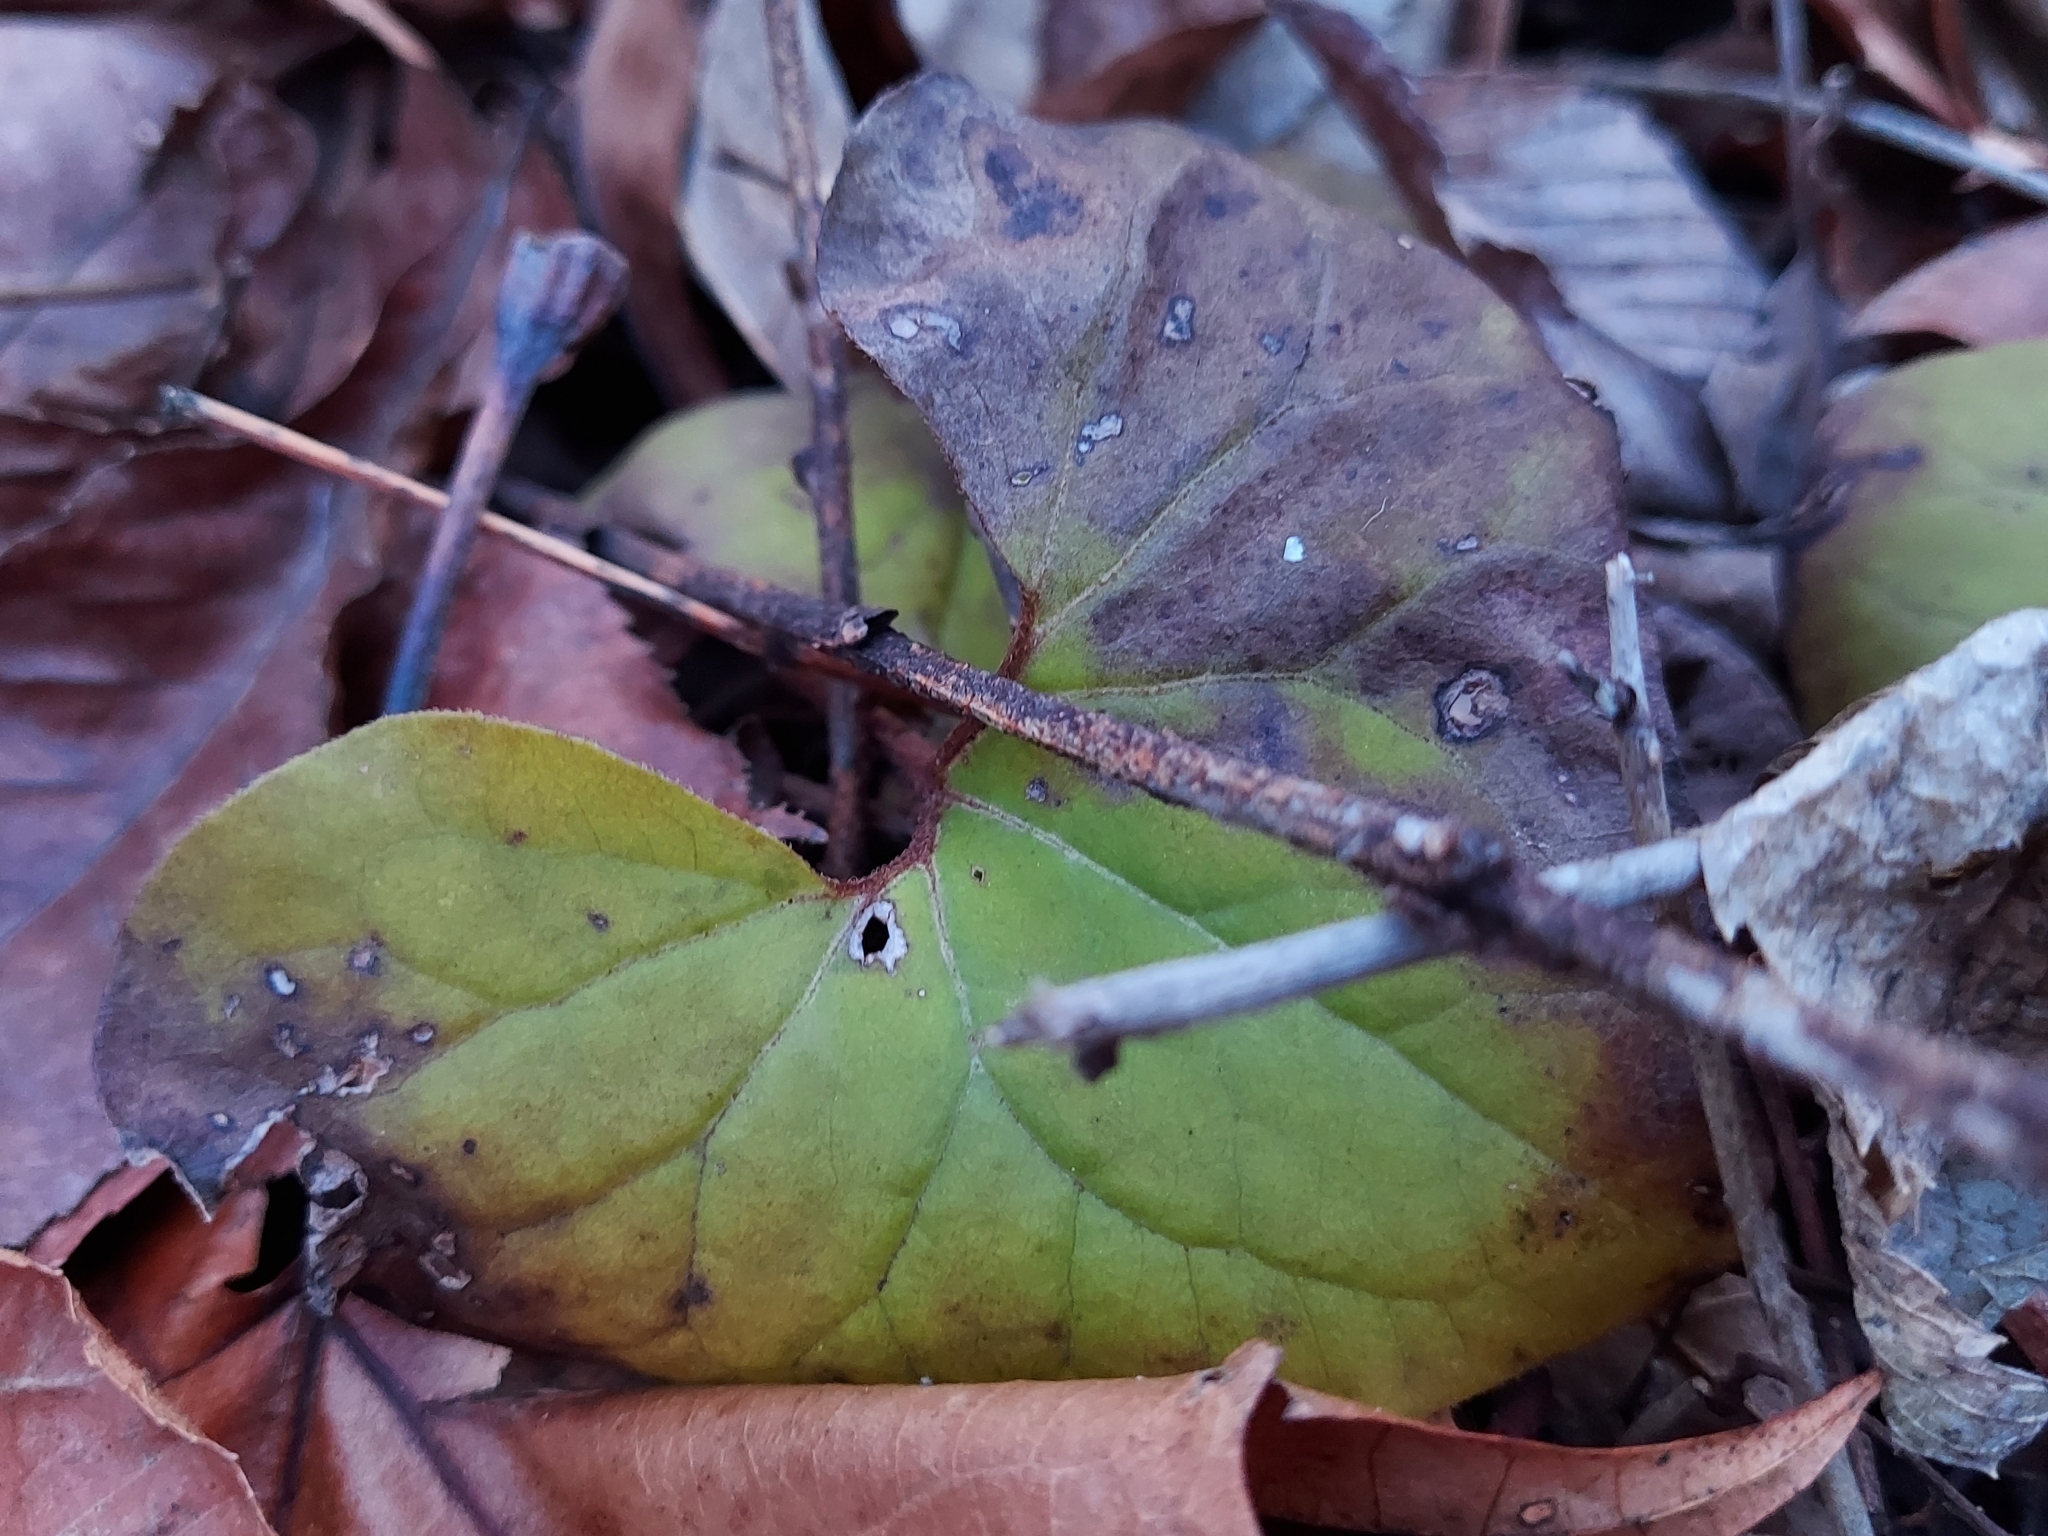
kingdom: Plantae
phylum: Tracheophyta
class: Magnoliopsida
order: Piperales
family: Aristolochiaceae
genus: Asarum
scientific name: Asarum canadense
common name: Wild ginger
